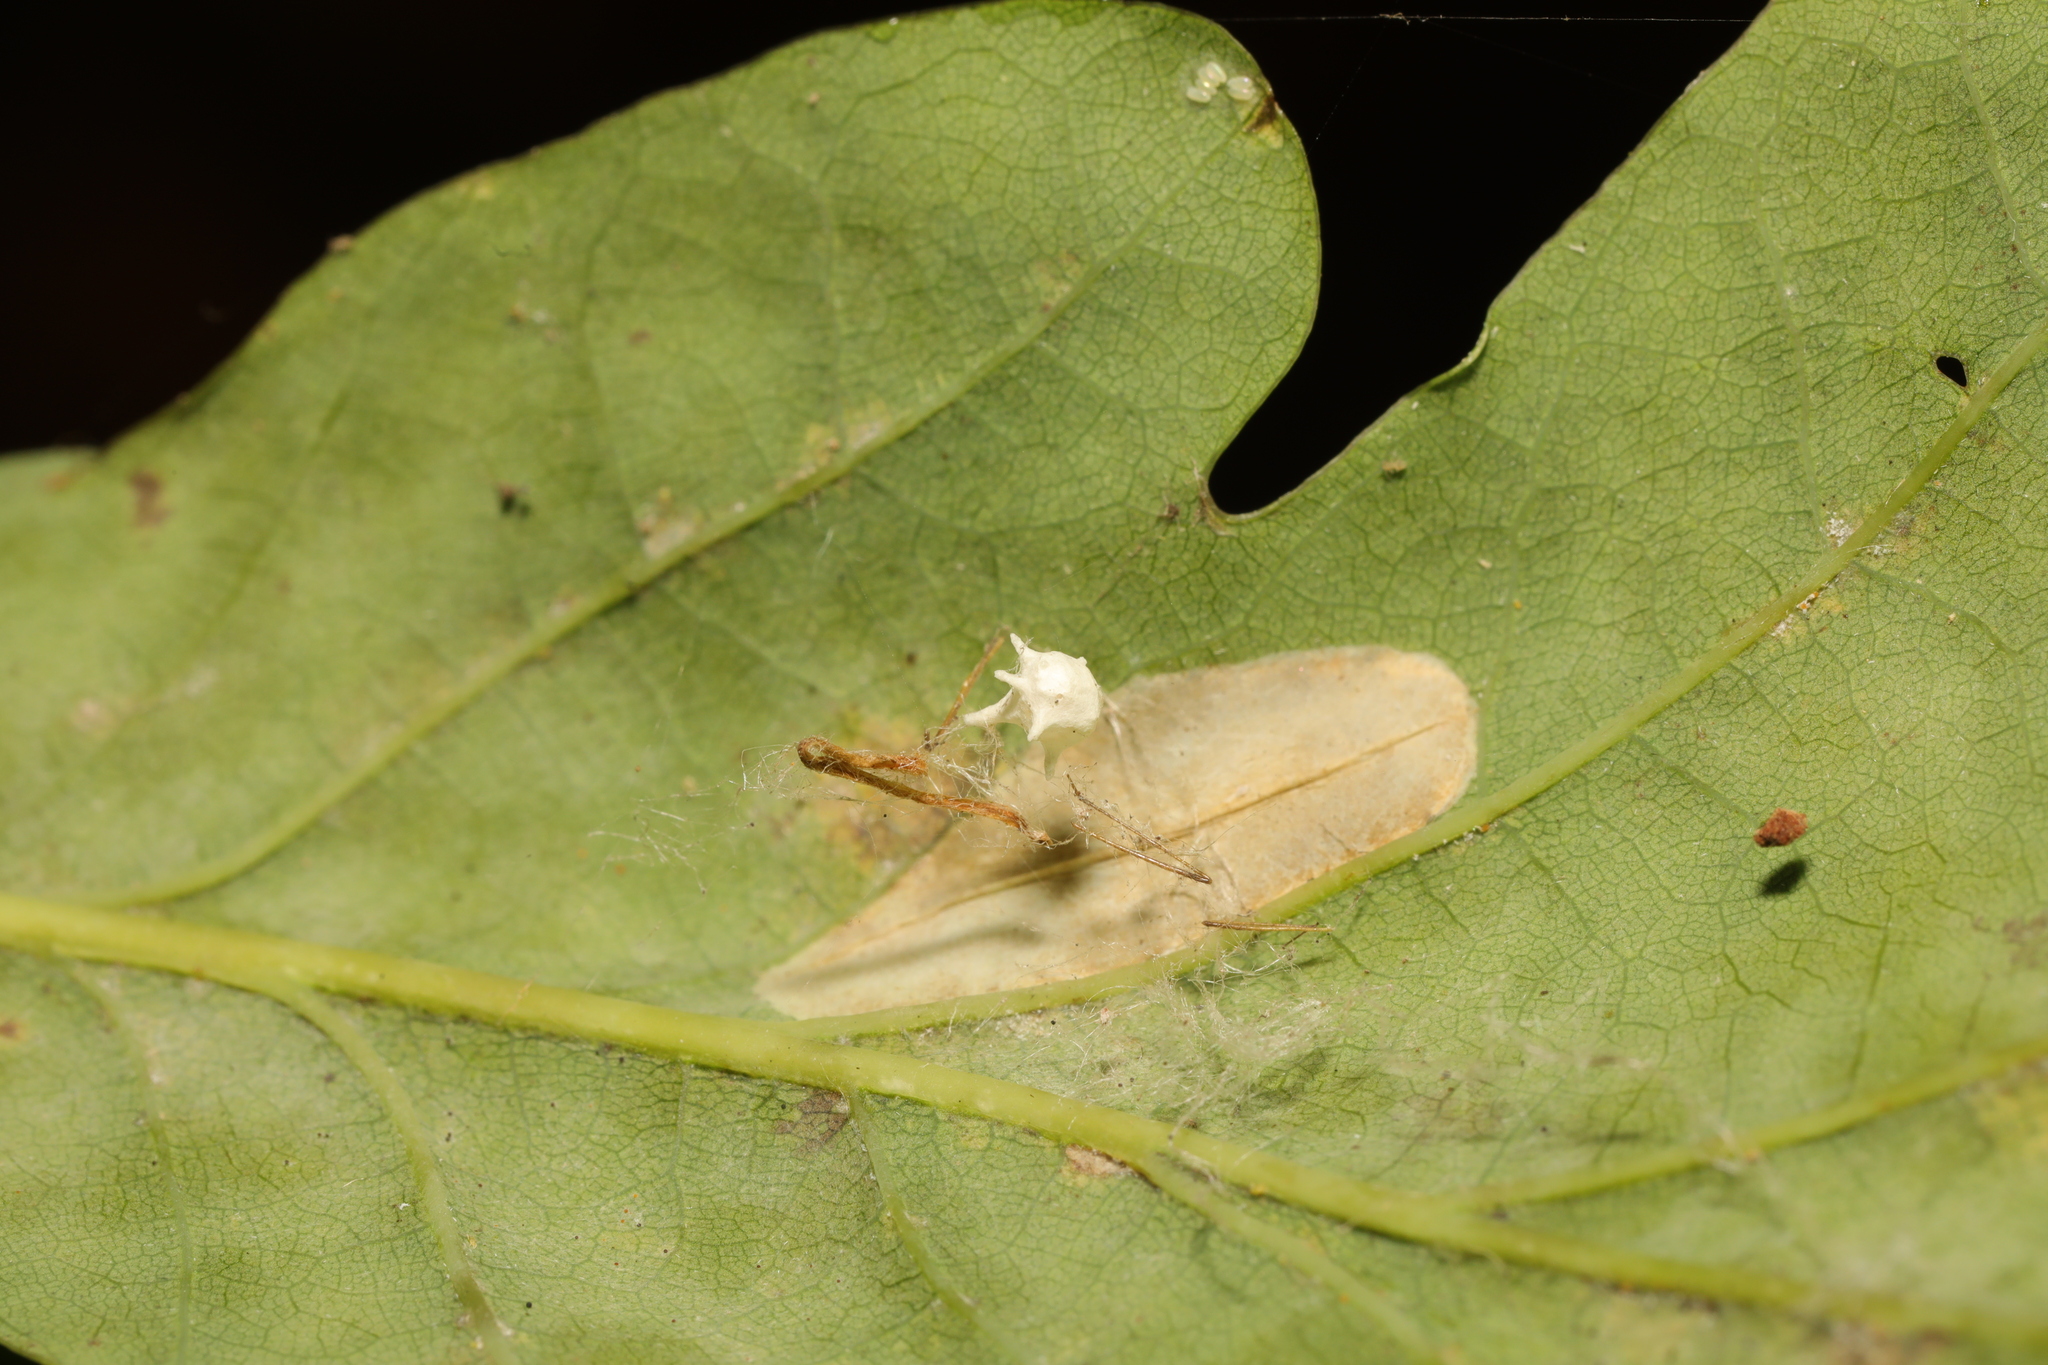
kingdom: Animalia
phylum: Arthropoda
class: Arachnida
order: Araneae
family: Theridiidae
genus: Paidiscura
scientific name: Paidiscura pallens
